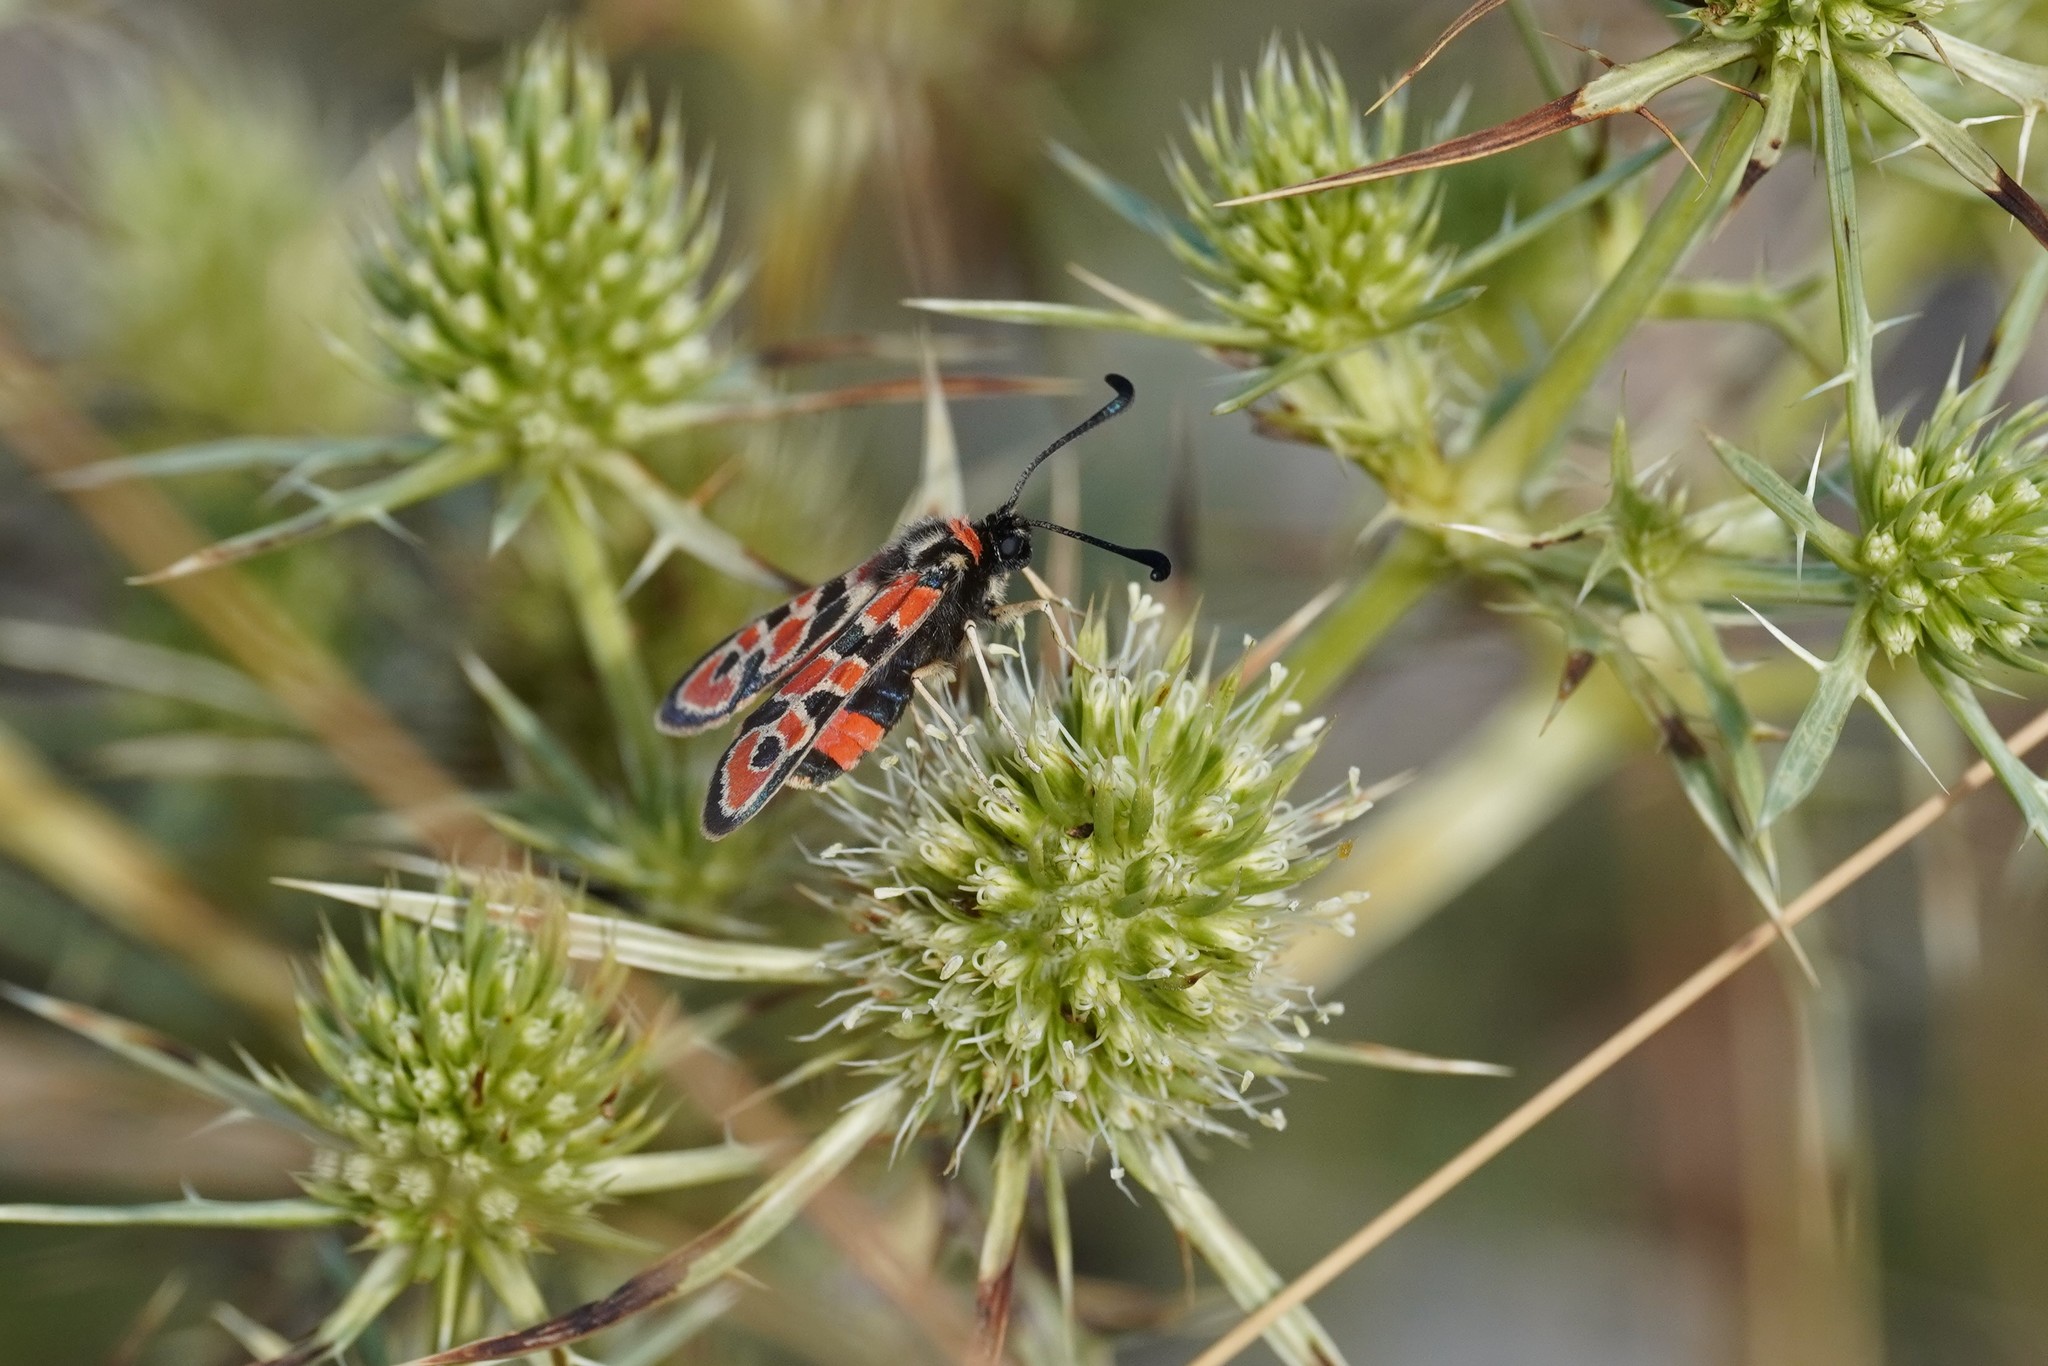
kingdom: Animalia
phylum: Arthropoda
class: Insecta
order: Lepidoptera
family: Zygaenidae
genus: Zygaena
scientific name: Zygaena fausta
